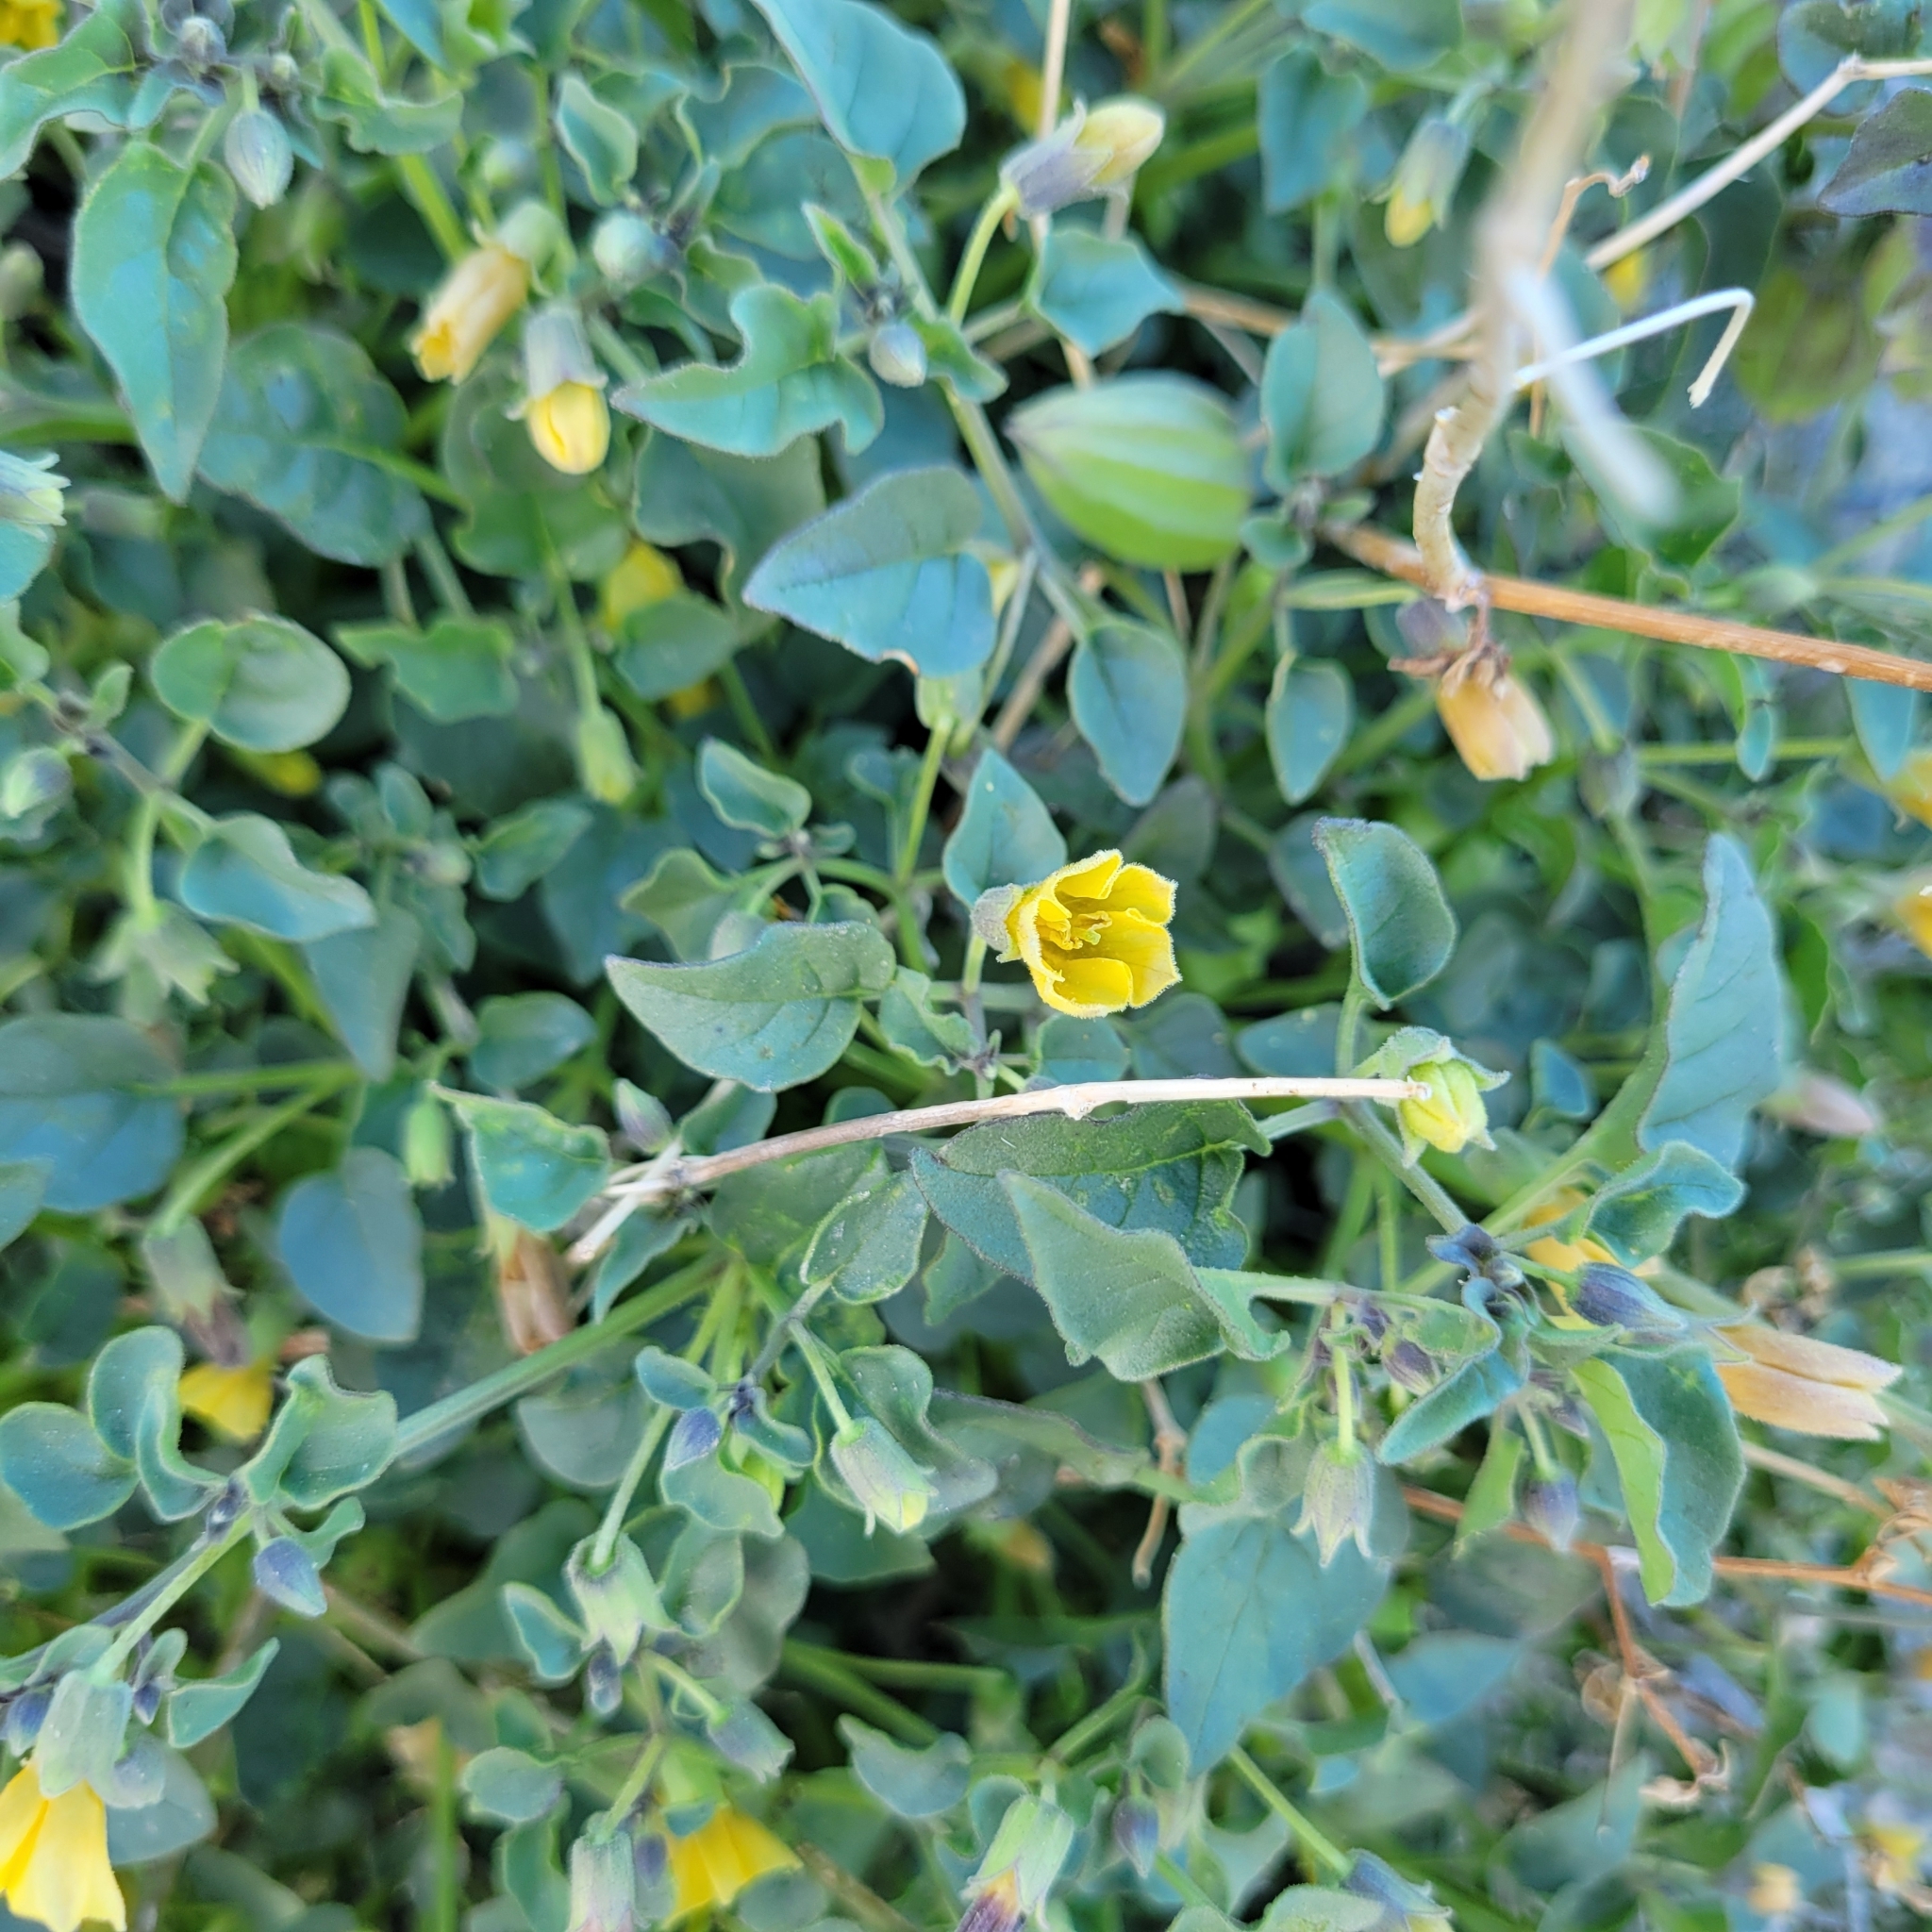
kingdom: Plantae
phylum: Tracheophyta
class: Magnoliopsida
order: Solanales
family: Solanaceae
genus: Physalis
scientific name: Physalis crassifolia
